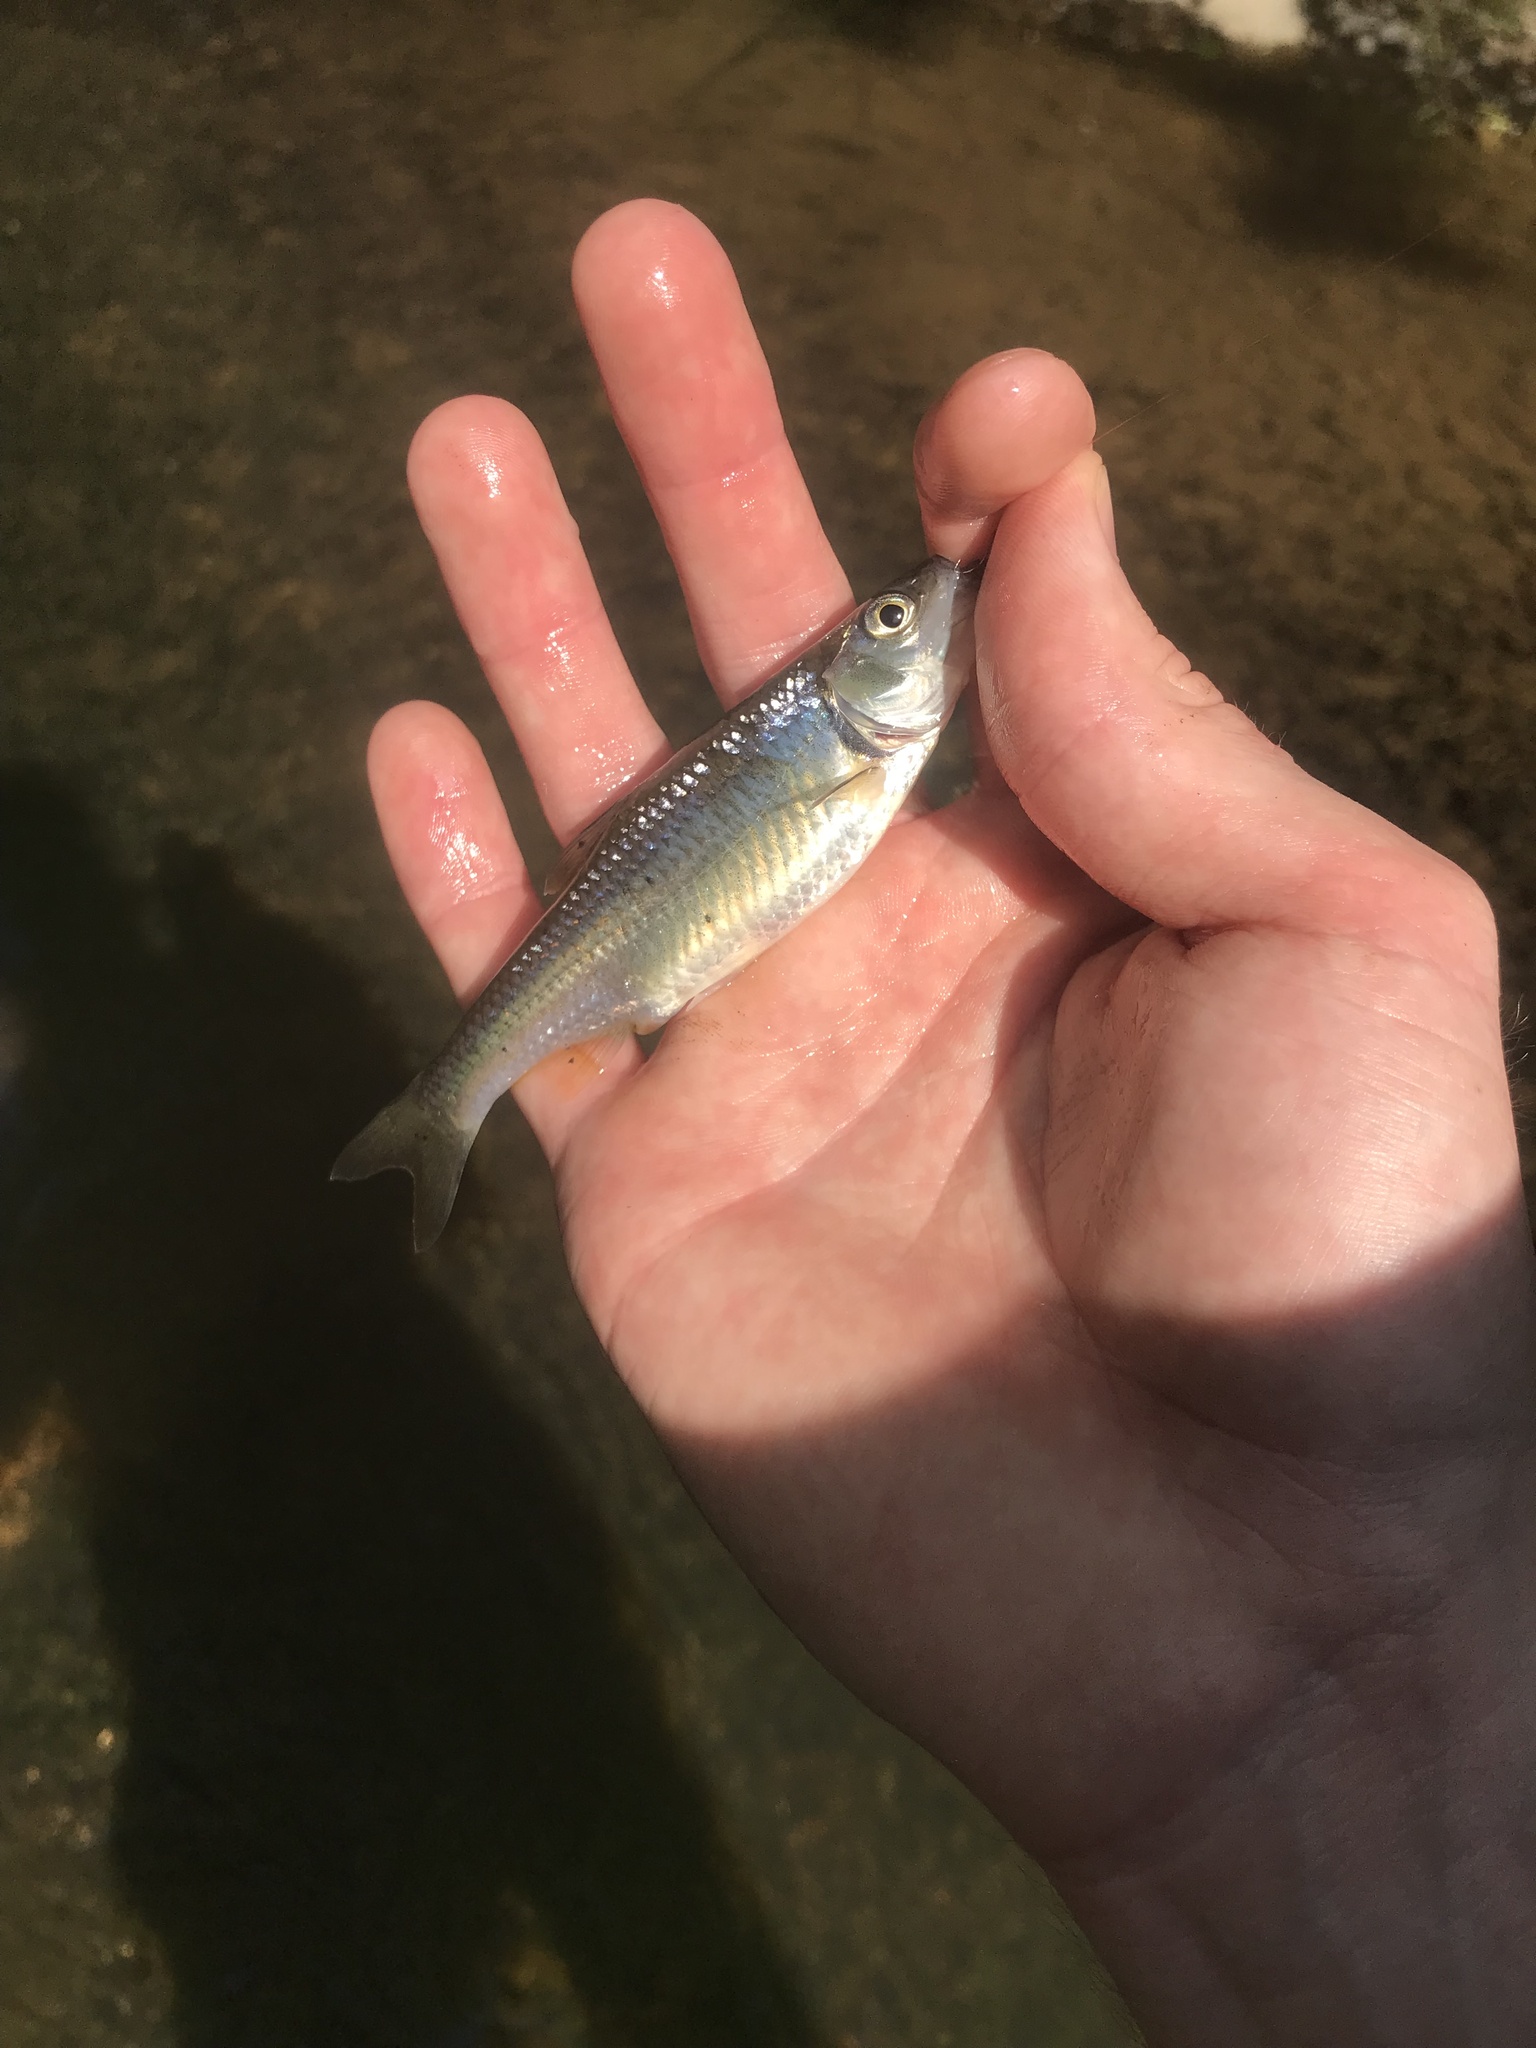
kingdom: Animalia
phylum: Chordata
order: Cypriniformes
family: Cyprinidae
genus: Luxilus
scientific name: Luxilus albeolus
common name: White shiner
